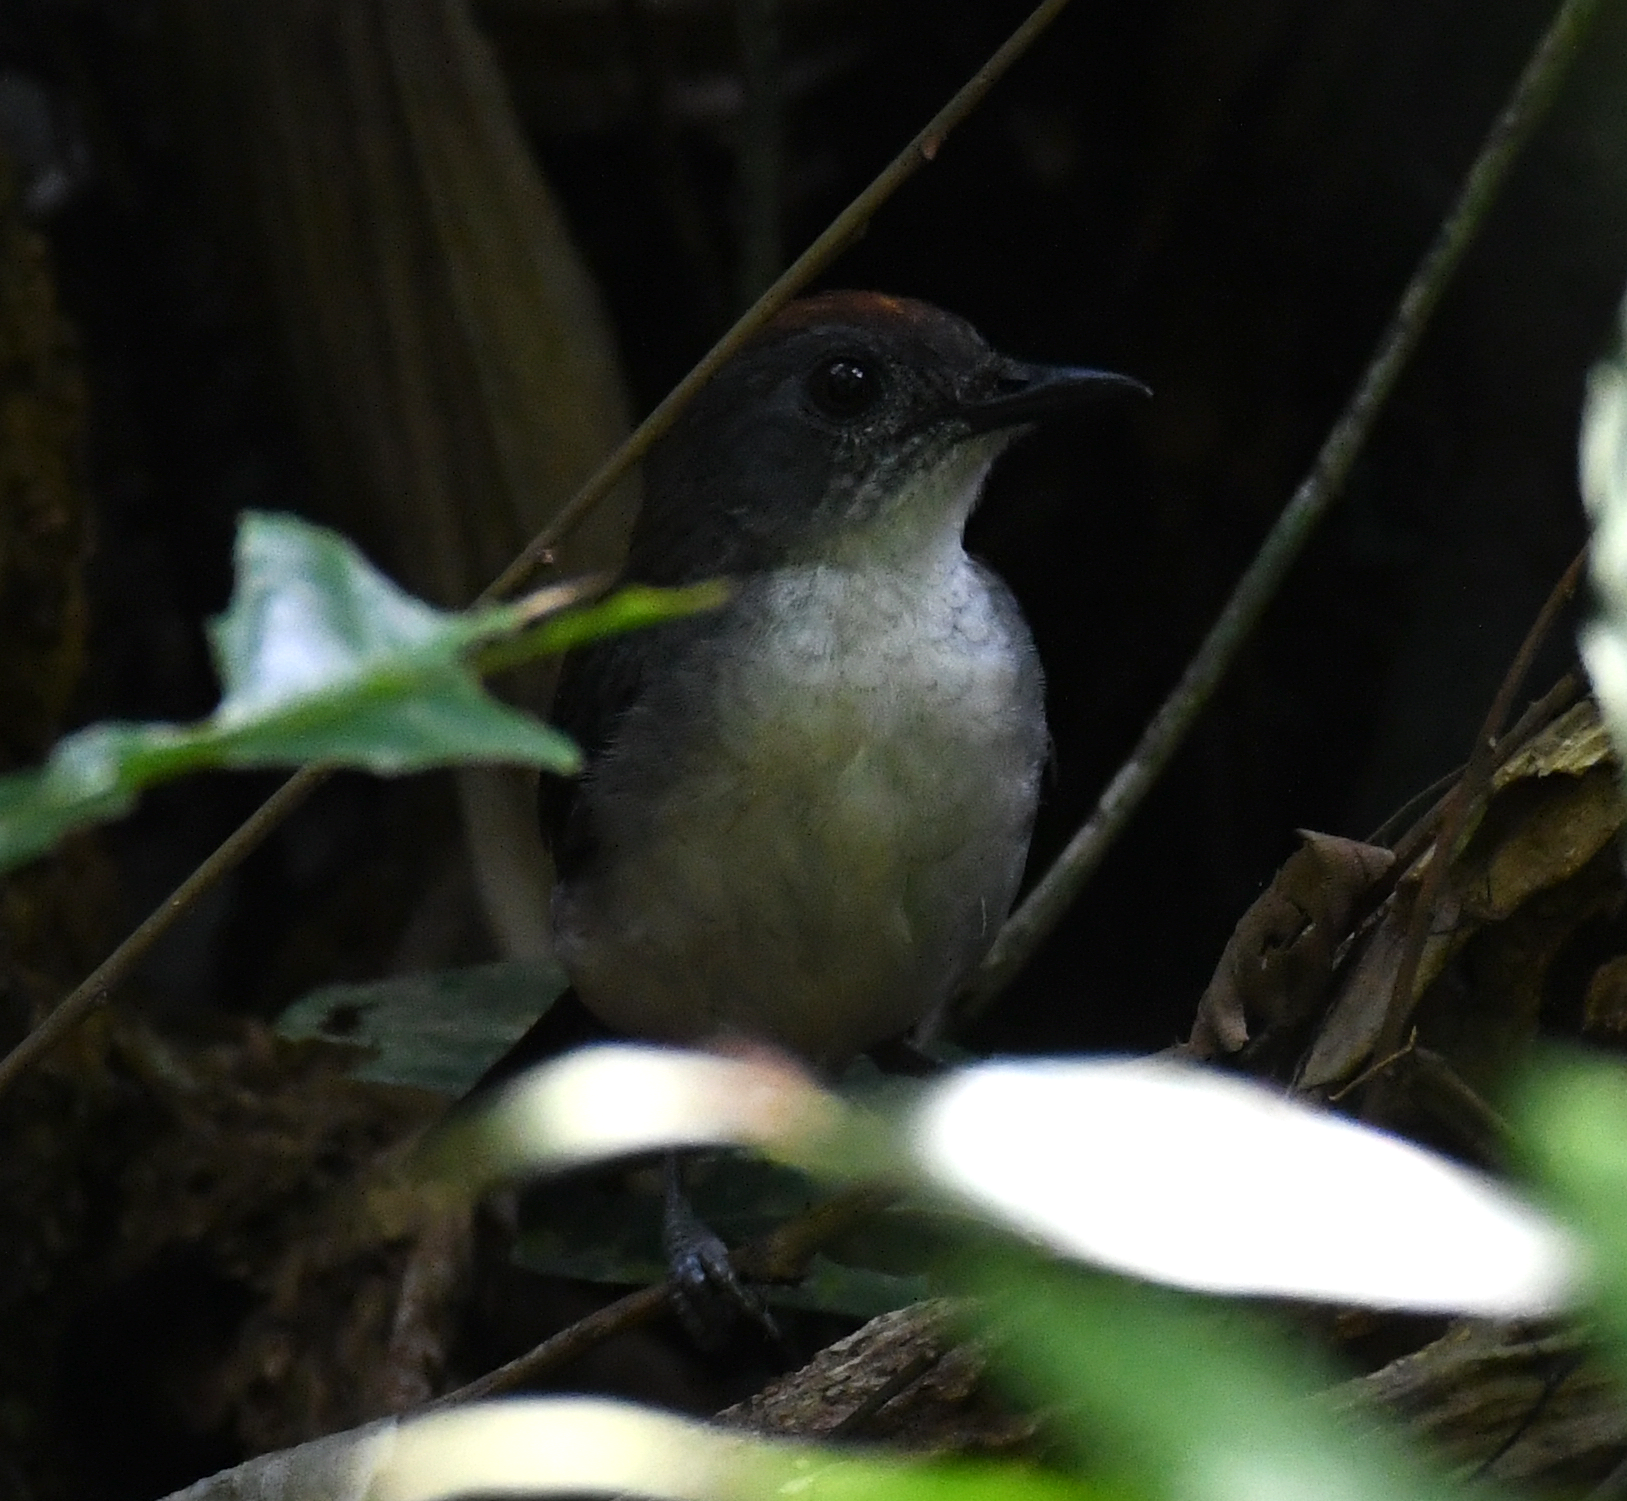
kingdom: Animalia
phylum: Chordata
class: Aves
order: Passeriformes
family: Turdidae
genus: Alethe
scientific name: Alethe diademata
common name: Fire-crested alethe
